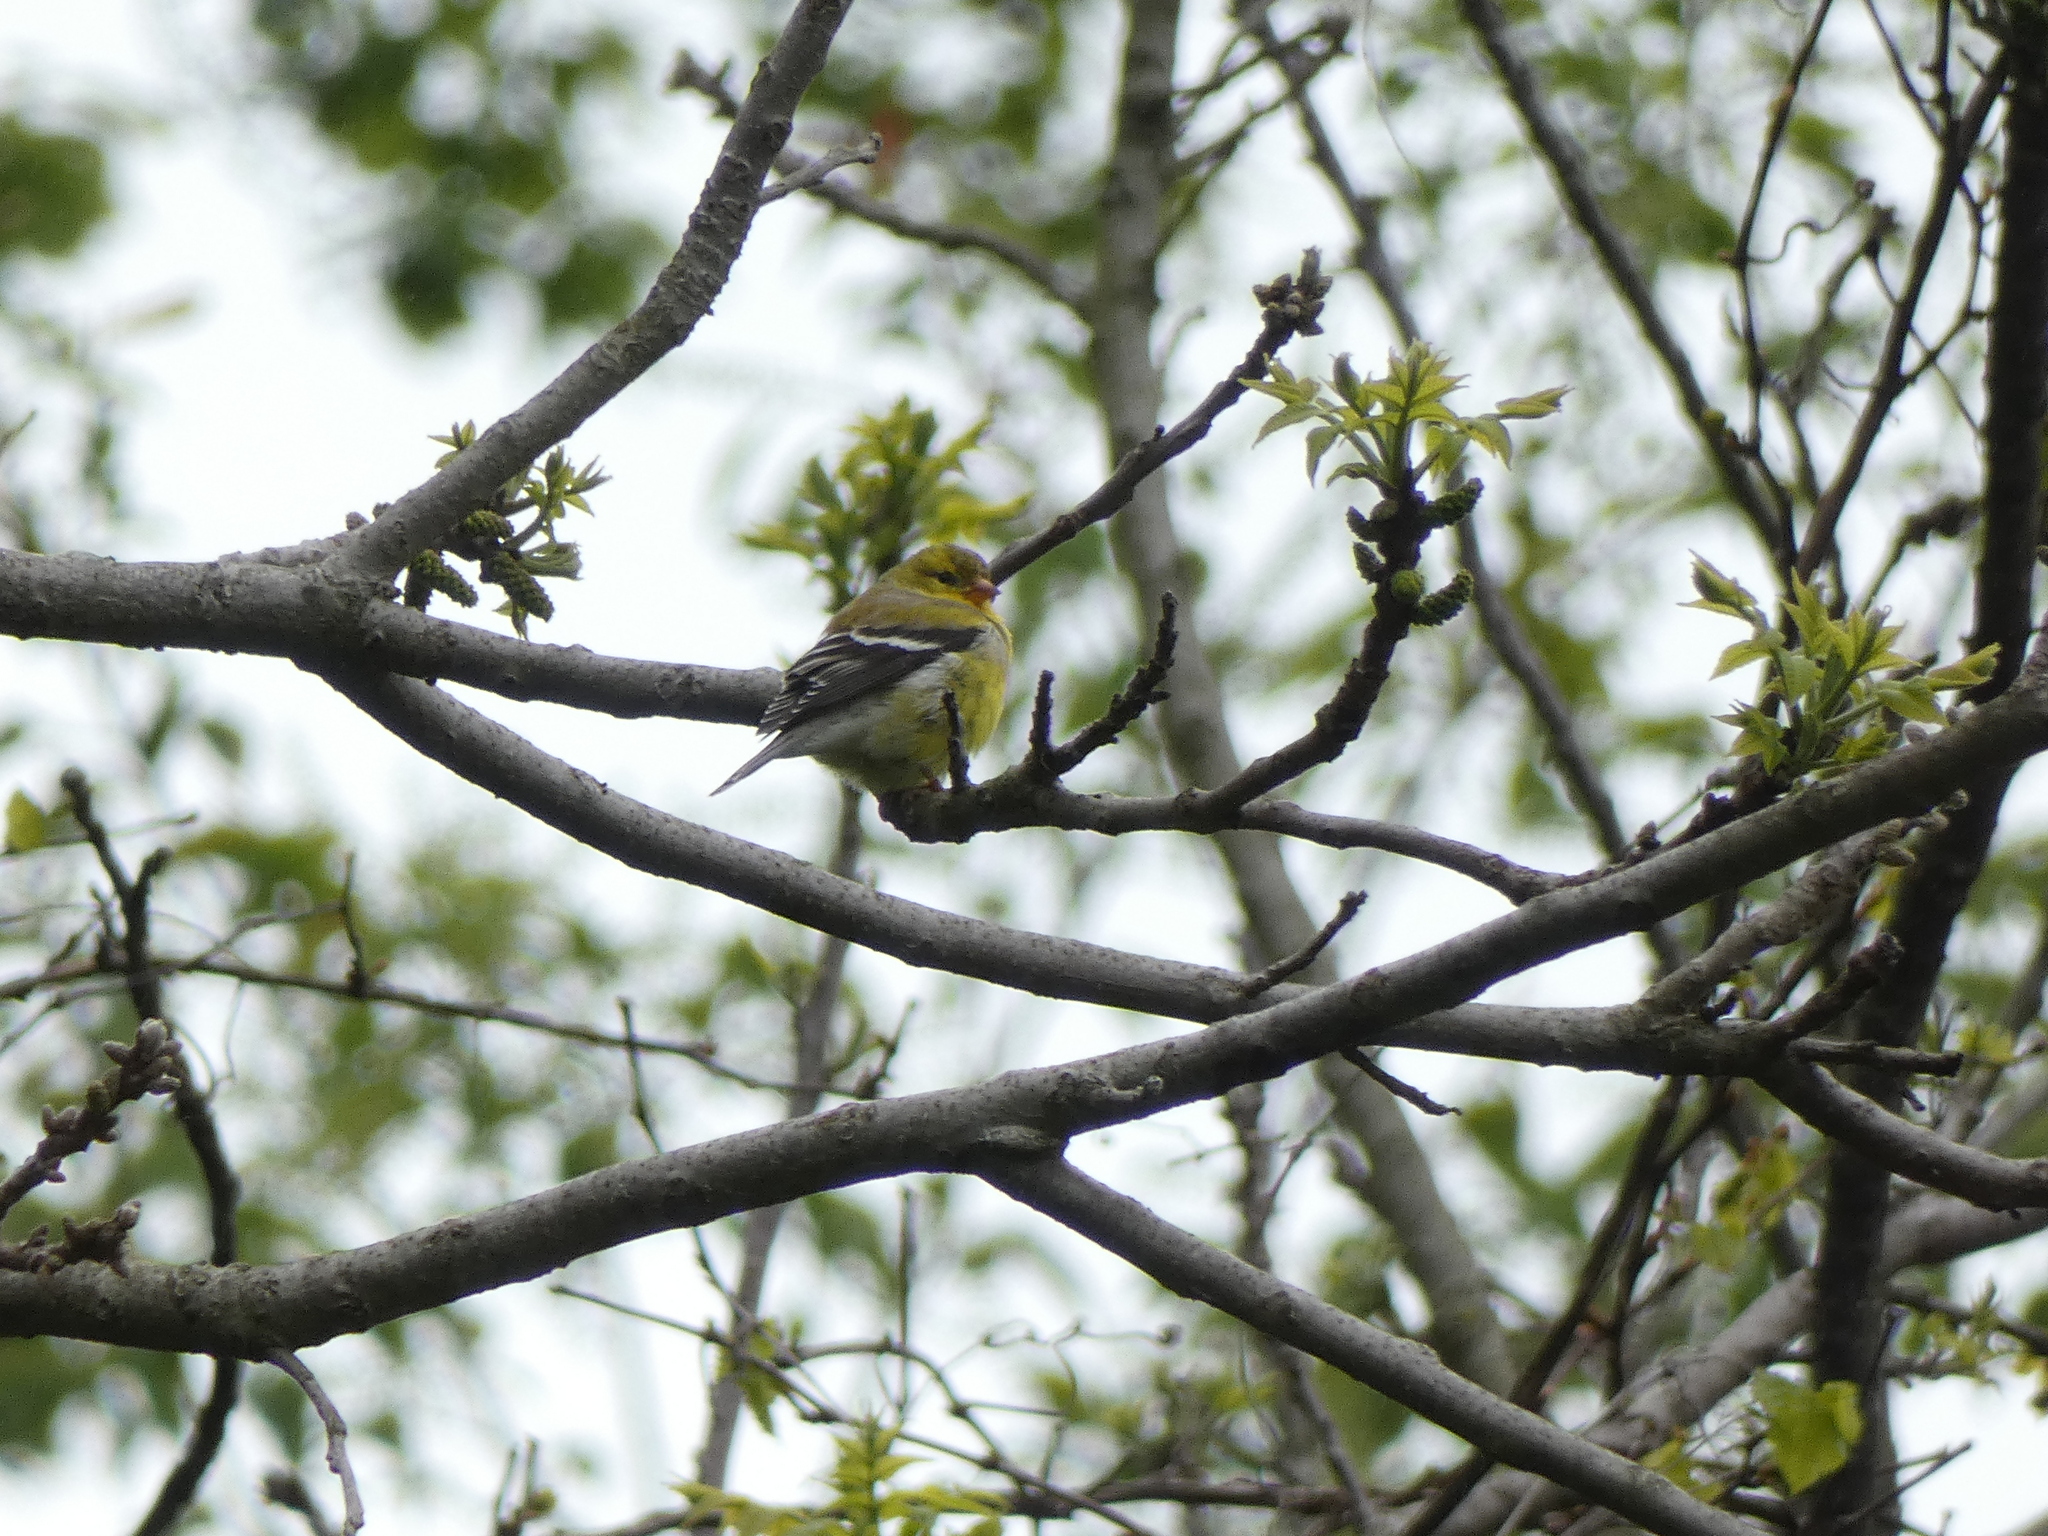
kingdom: Animalia
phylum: Chordata
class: Aves
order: Passeriformes
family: Fringillidae
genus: Spinus
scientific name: Spinus tristis
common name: American goldfinch
